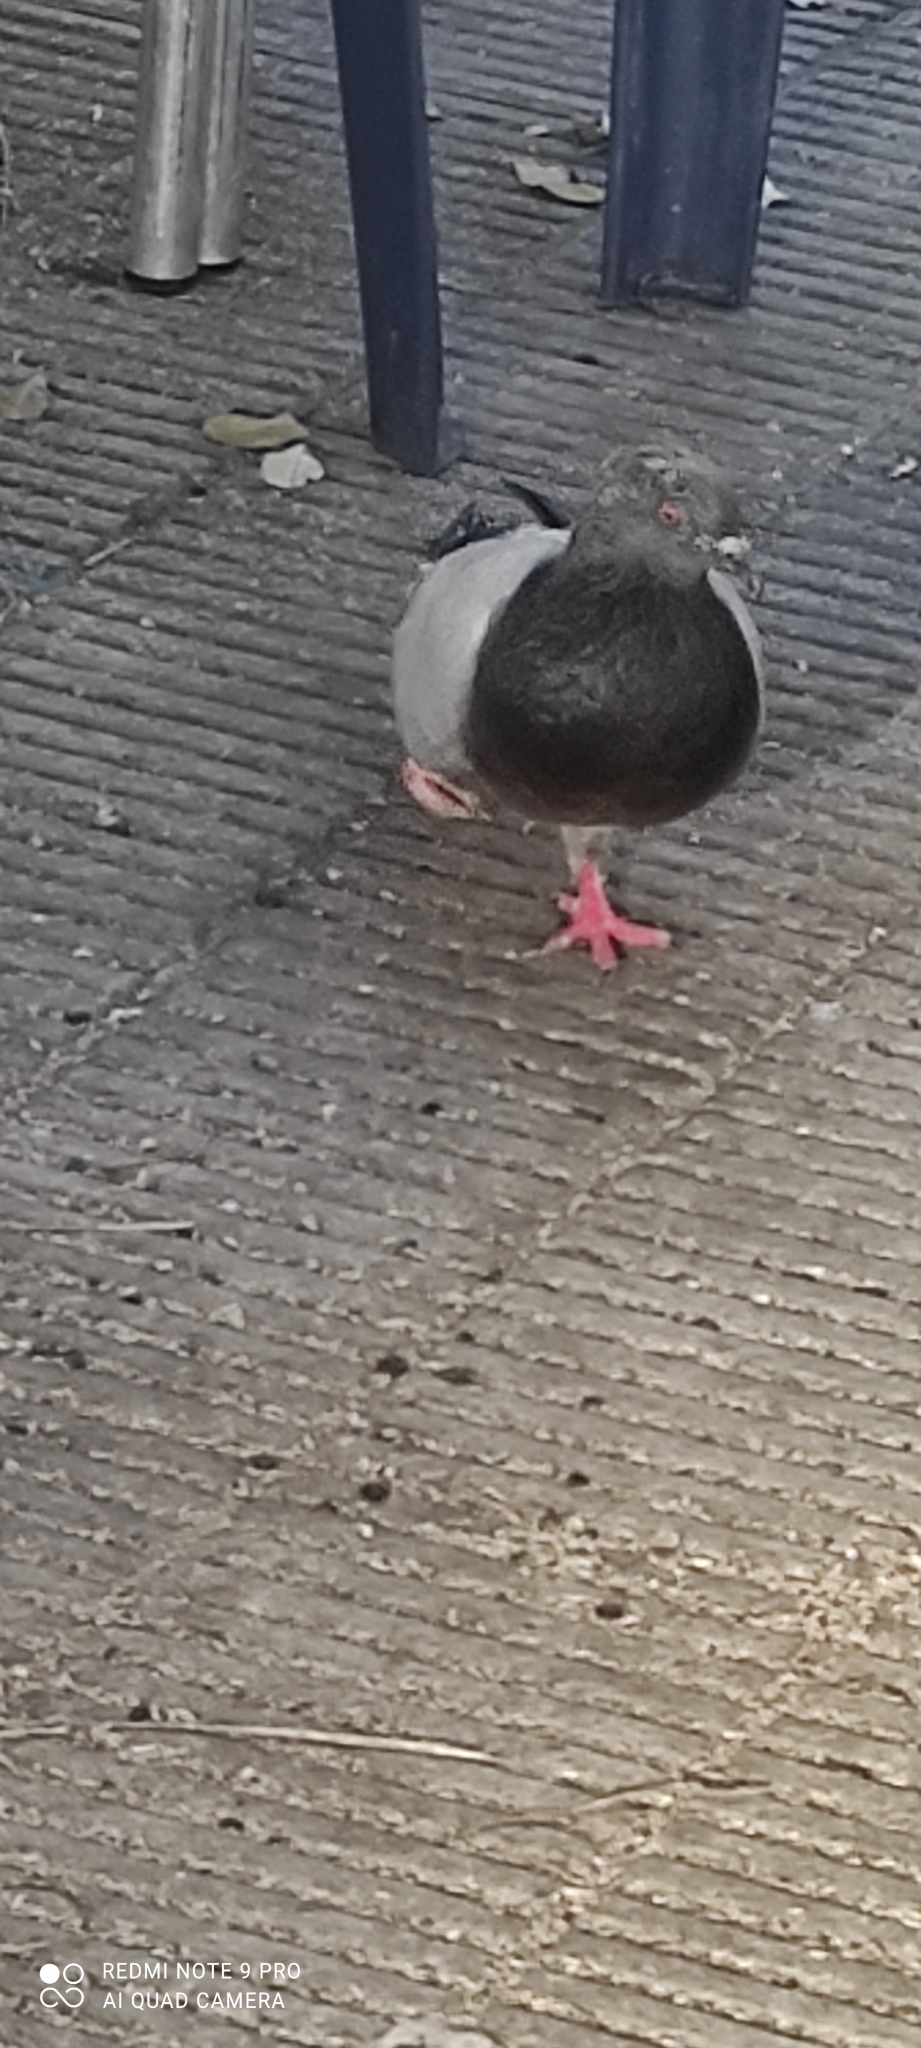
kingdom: Animalia
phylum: Chordata
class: Aves
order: Columbiformes
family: Columbidae
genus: Columba
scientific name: Columba livia
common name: Rock pigeon
